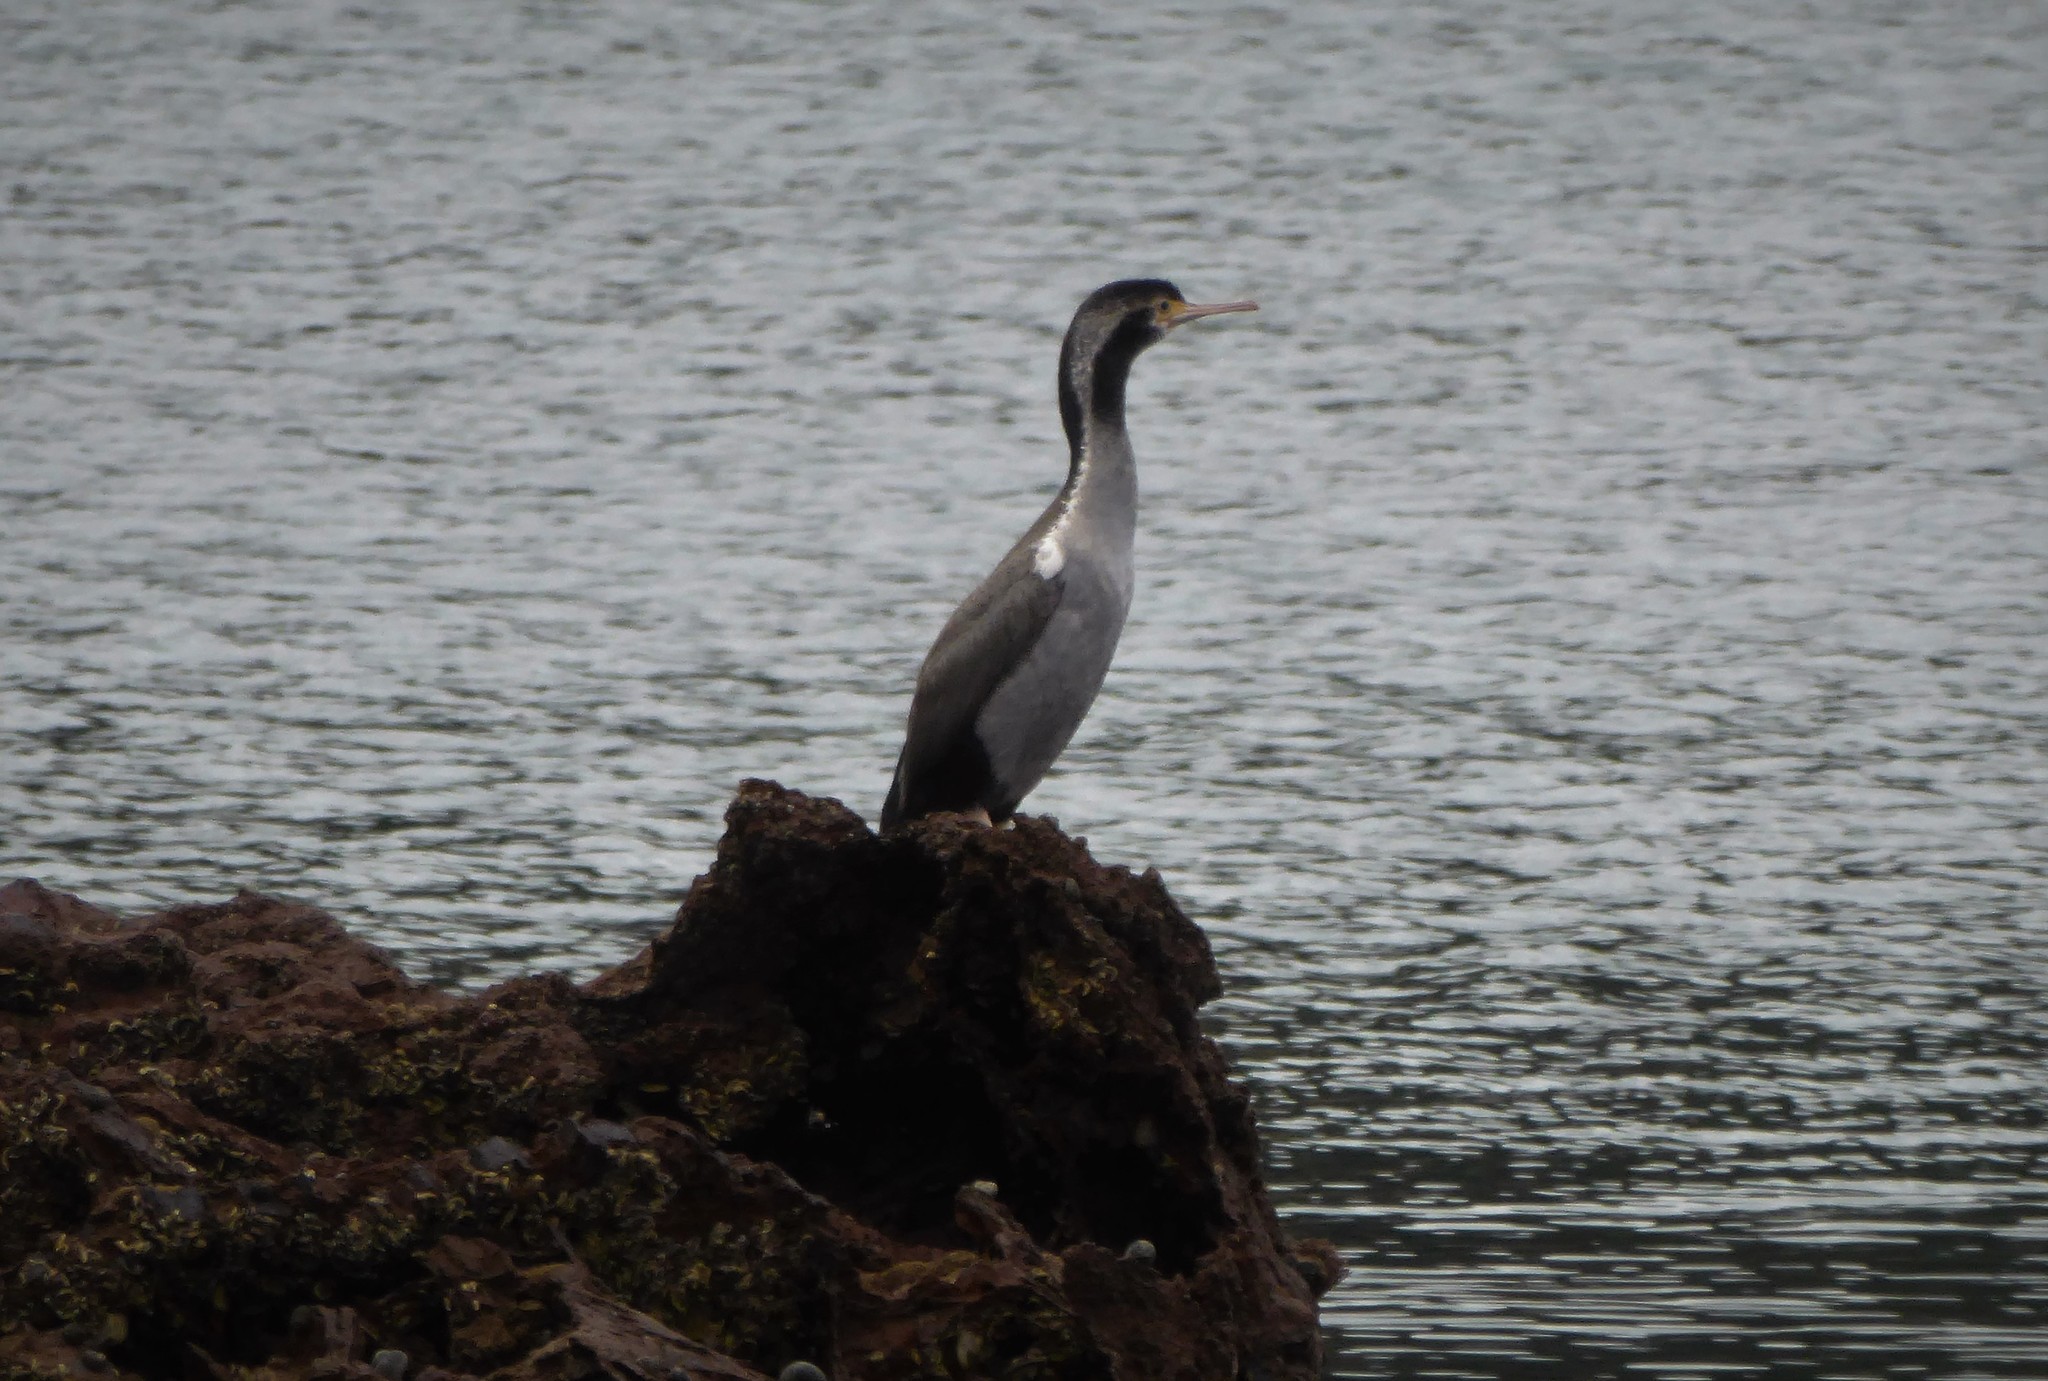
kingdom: Animalia
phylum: Chordata
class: Aves
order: Suliformes
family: Phalacrocoracidae
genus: Phalacrocorax
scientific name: Phalacrocorax punctatus
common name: Spotted shag
